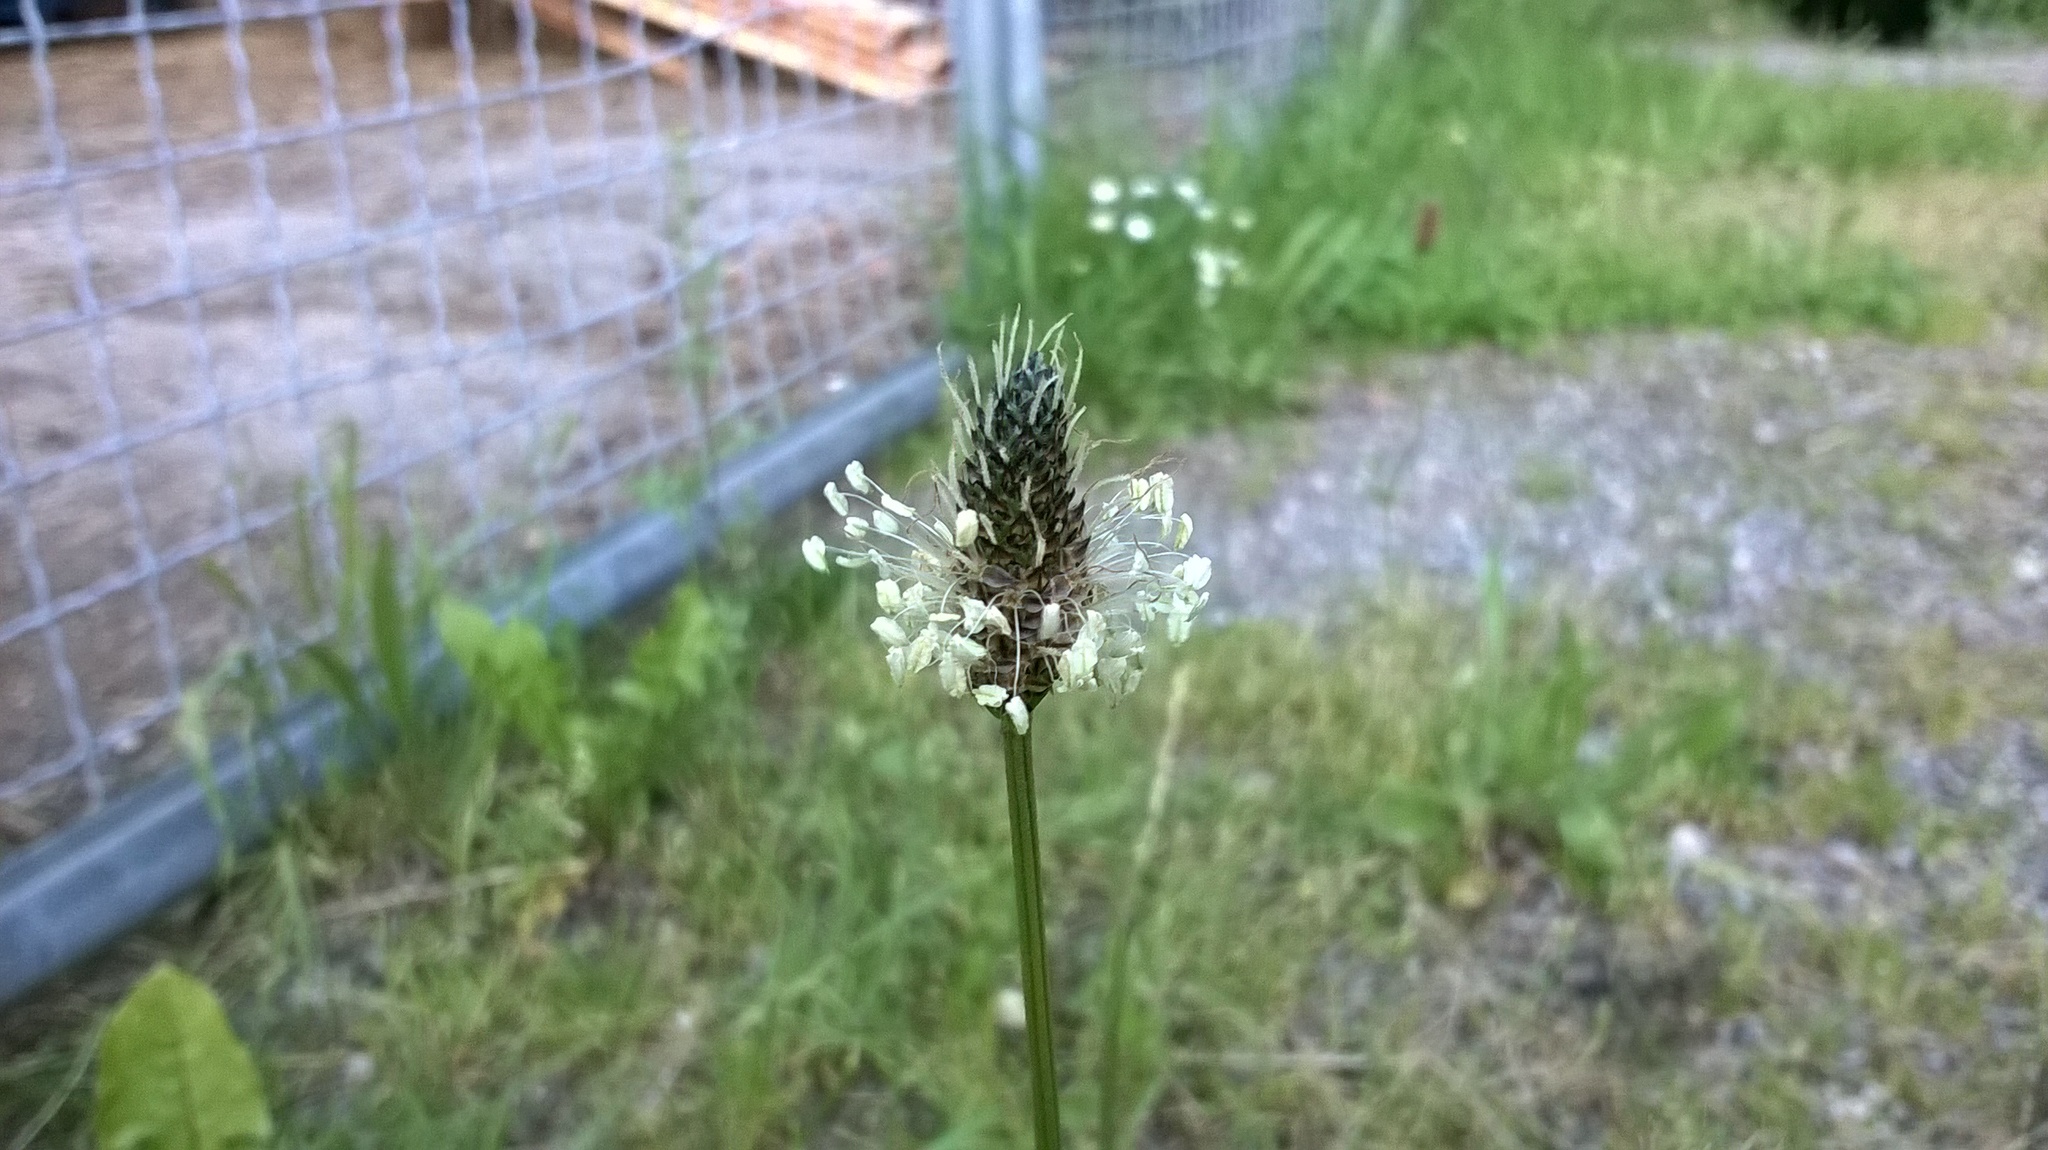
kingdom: Plantae
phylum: Tracheophyta
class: Magnoliopsida
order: Lamiales
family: Plantaginaceae
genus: Plantago
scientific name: Plantago lanceolata
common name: Ribwort plantain
